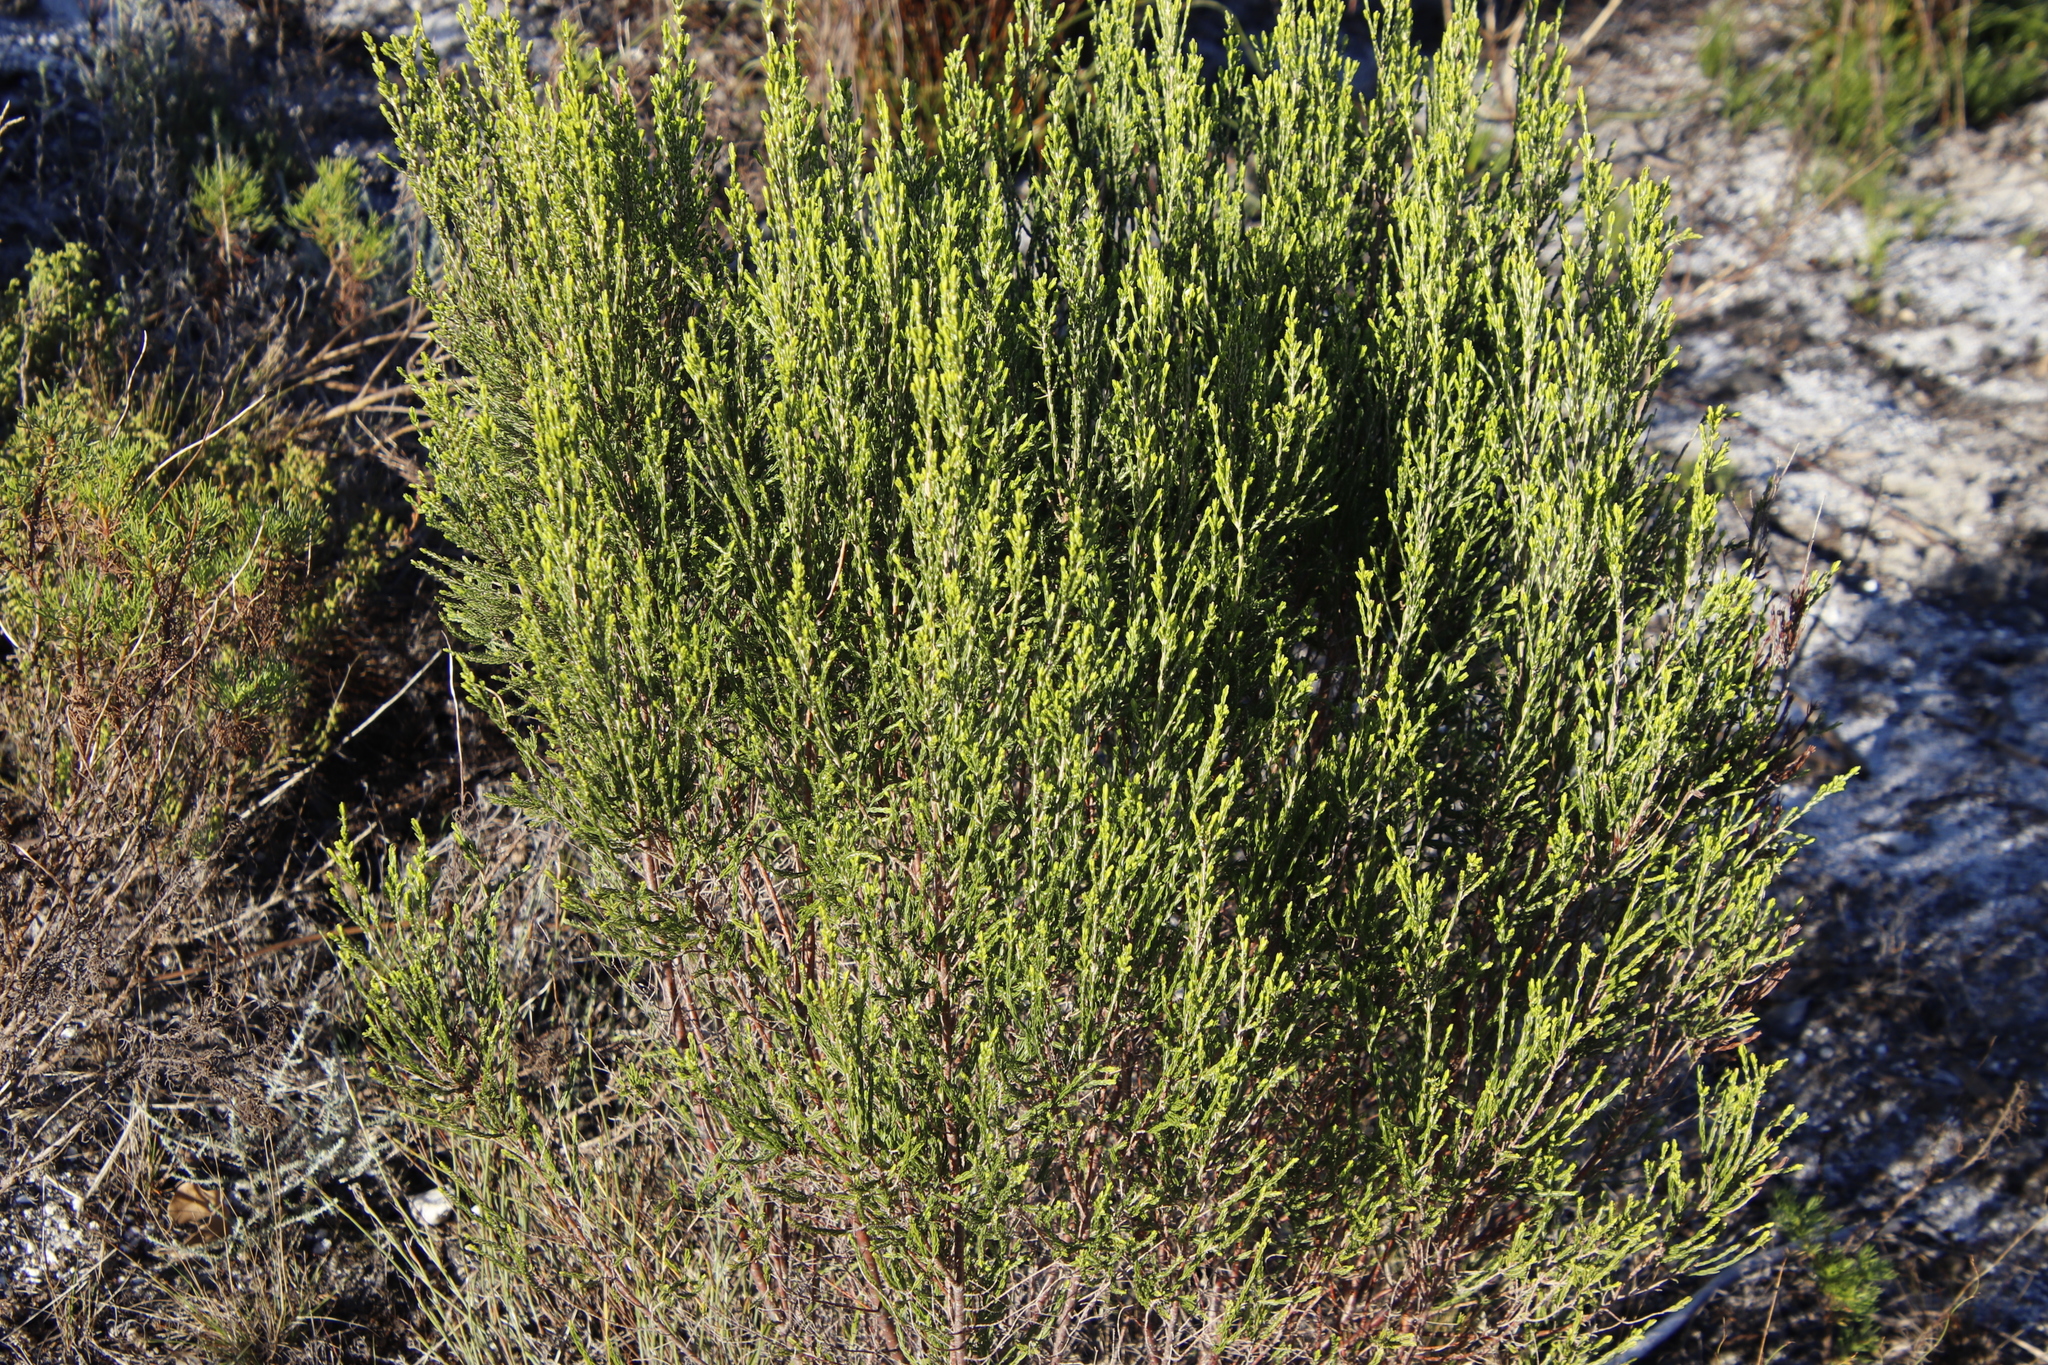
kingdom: Plantae
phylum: Tracheophyta
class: Magnoliopsida
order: Malvales
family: Thymelaeaceae
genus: Passerina
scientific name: Passerina corymbosa
